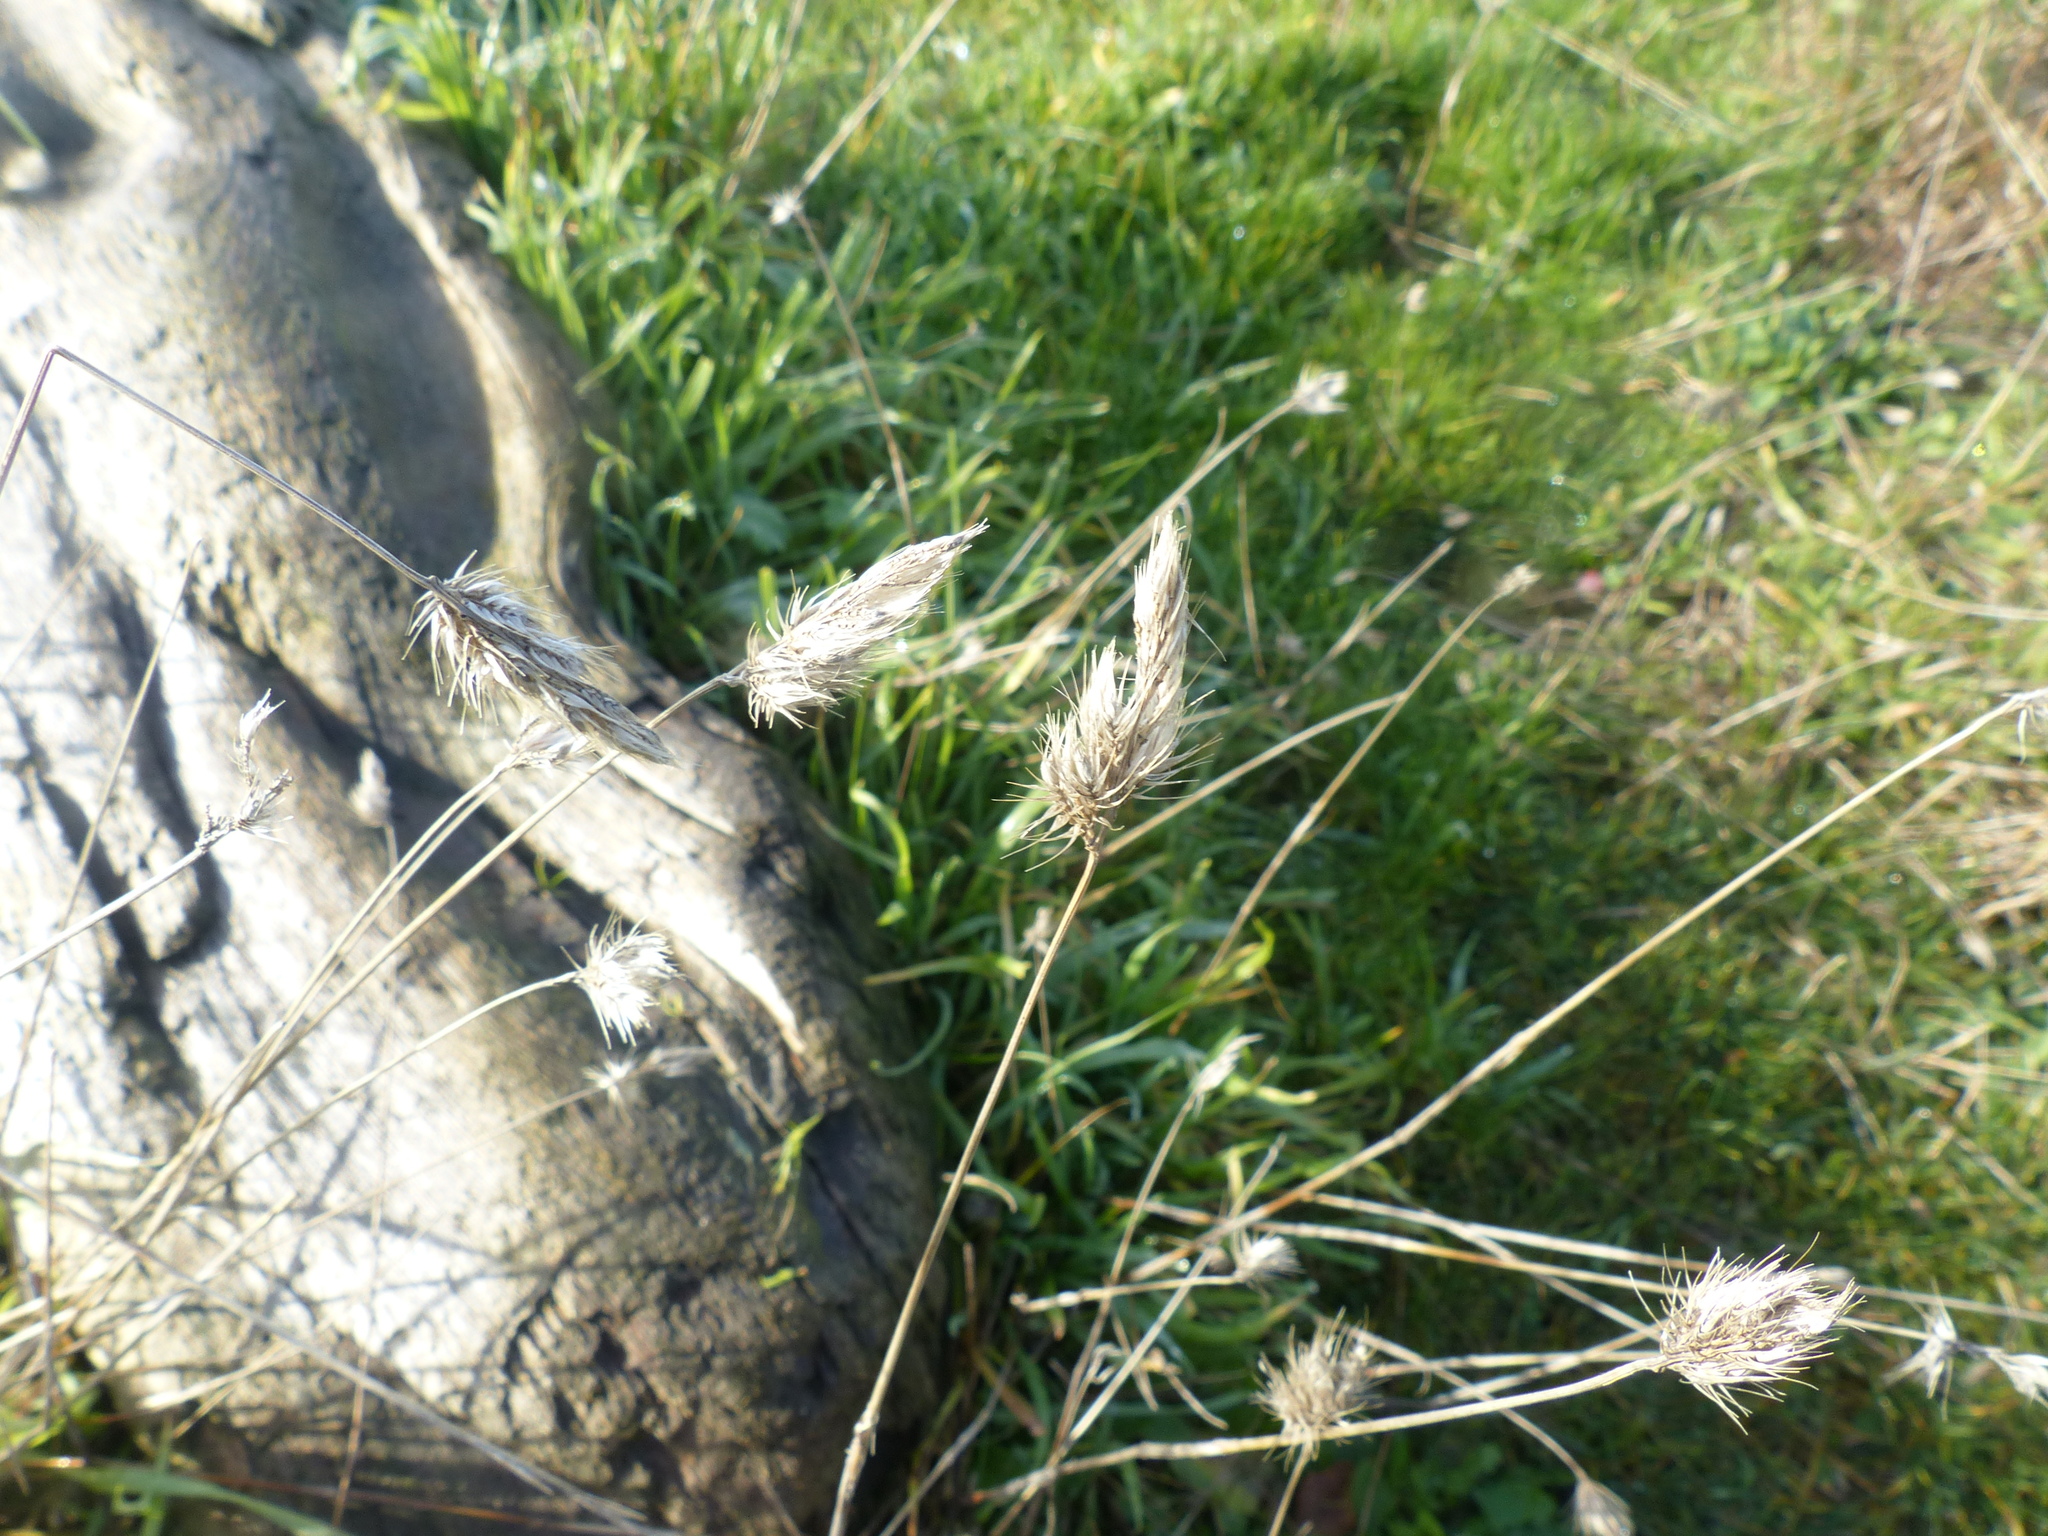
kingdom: Plantae
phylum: Tracheophyta
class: Liliopsida
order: Poales
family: Poaceae
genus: Cynosurus
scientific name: Cynosurus echinatus
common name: Rough dog's-tail
